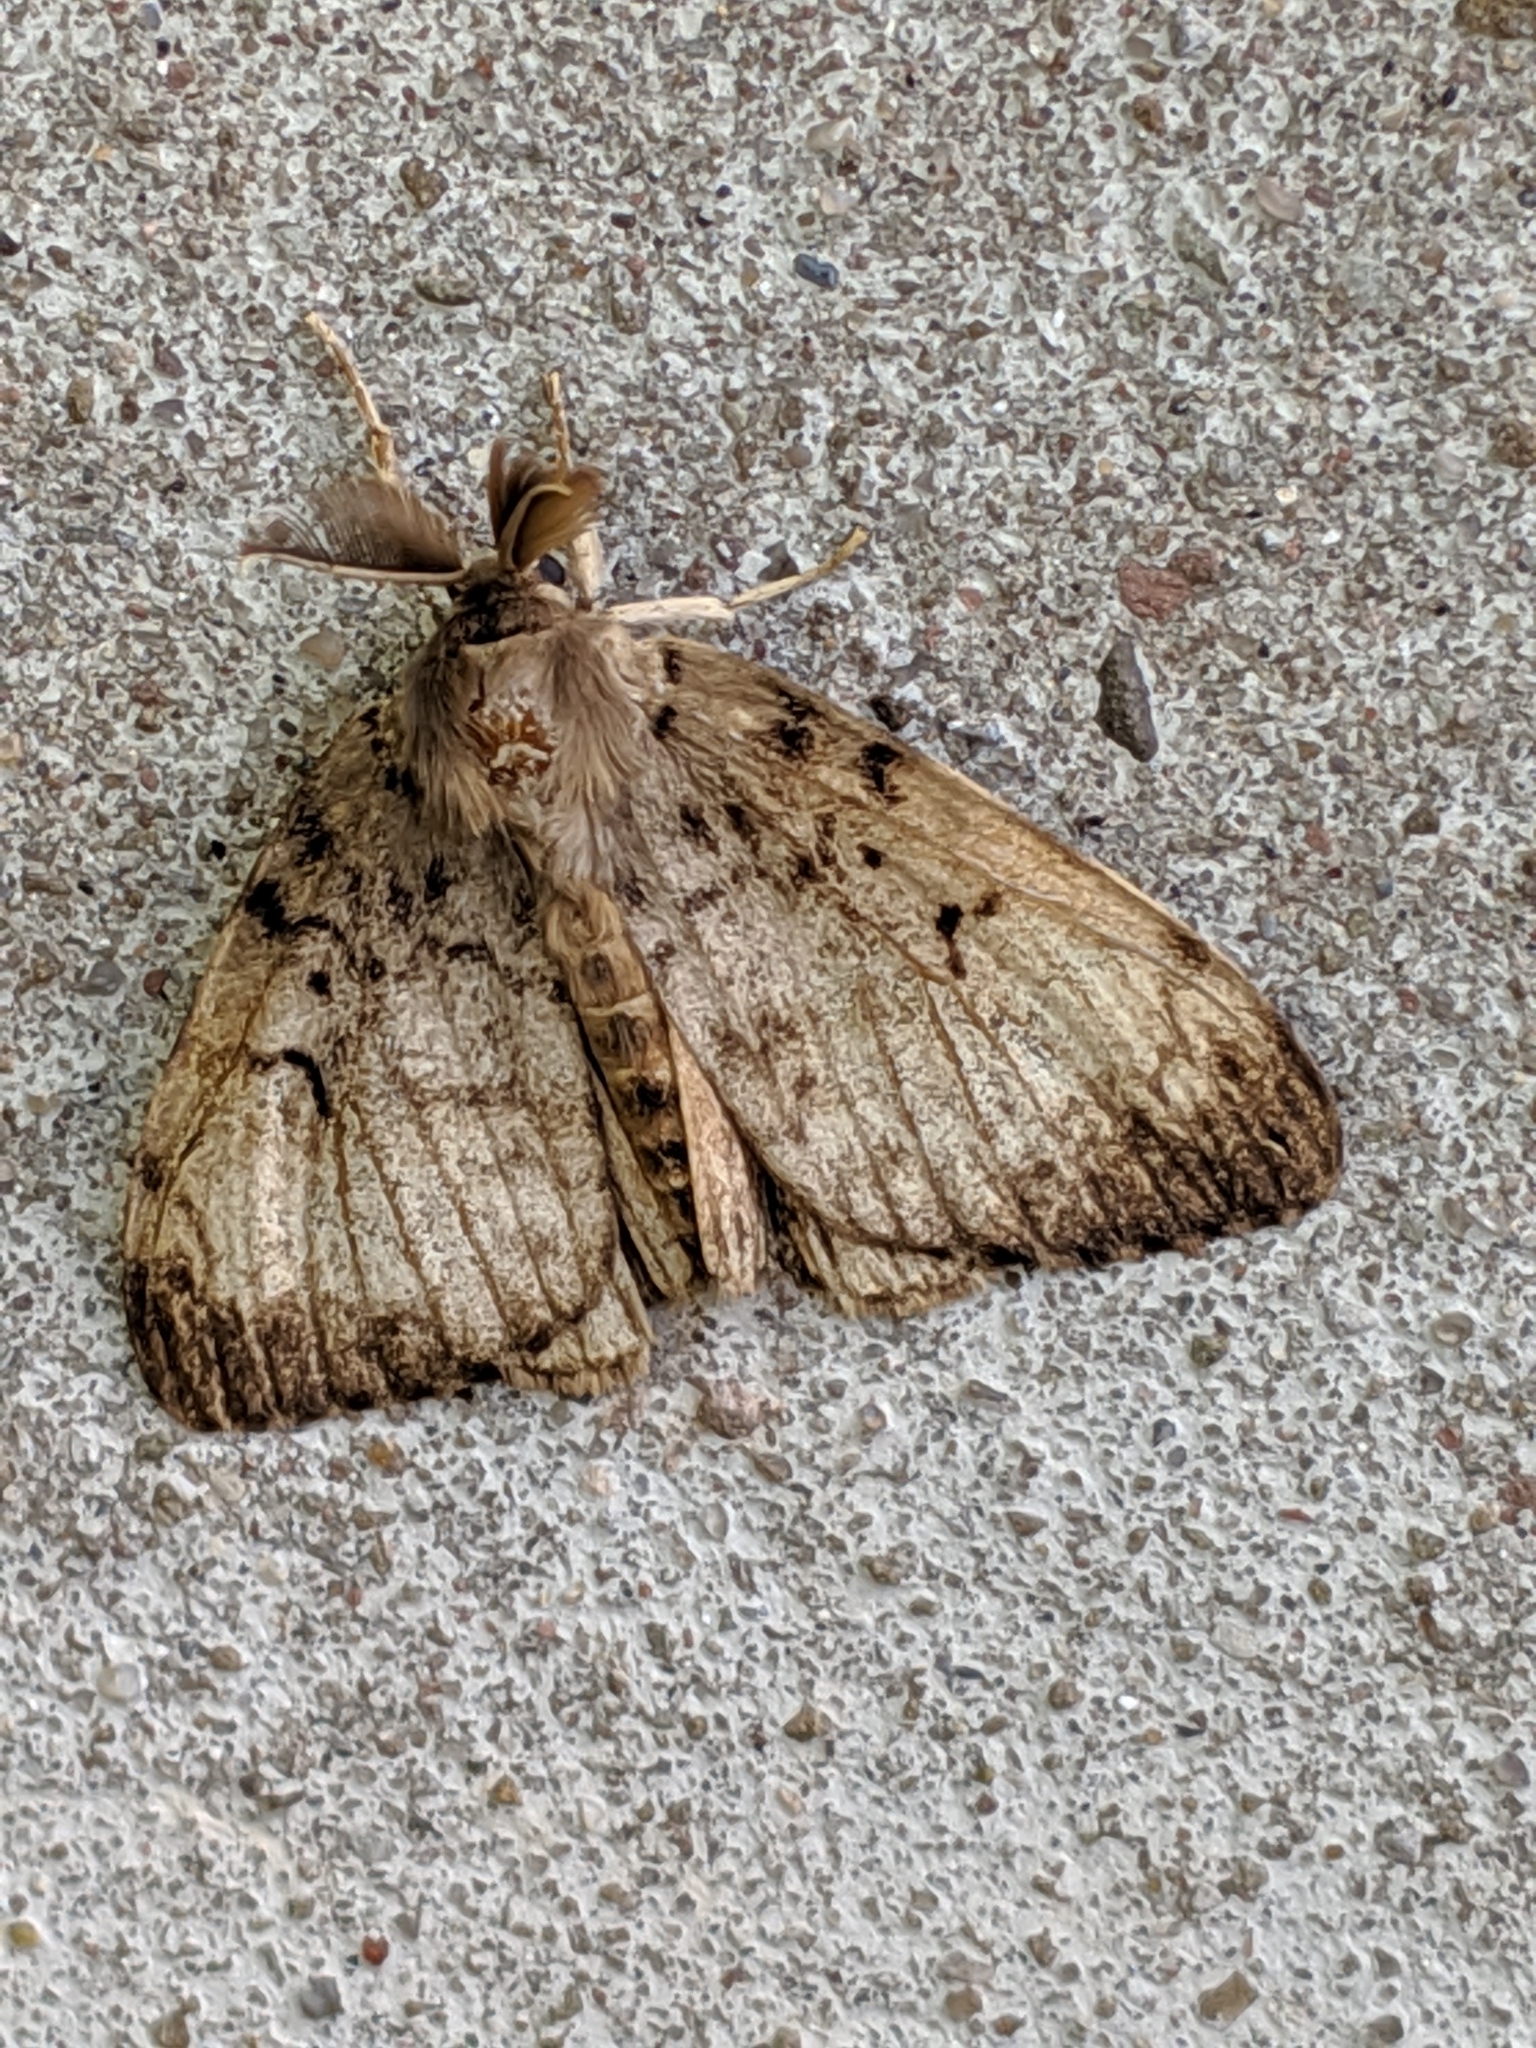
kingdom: Animalia
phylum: Arthropoda
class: Insecta
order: Lepidoptera
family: Erebidae
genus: Lymantria
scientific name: Lymantria dispar
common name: Gypsy moth
